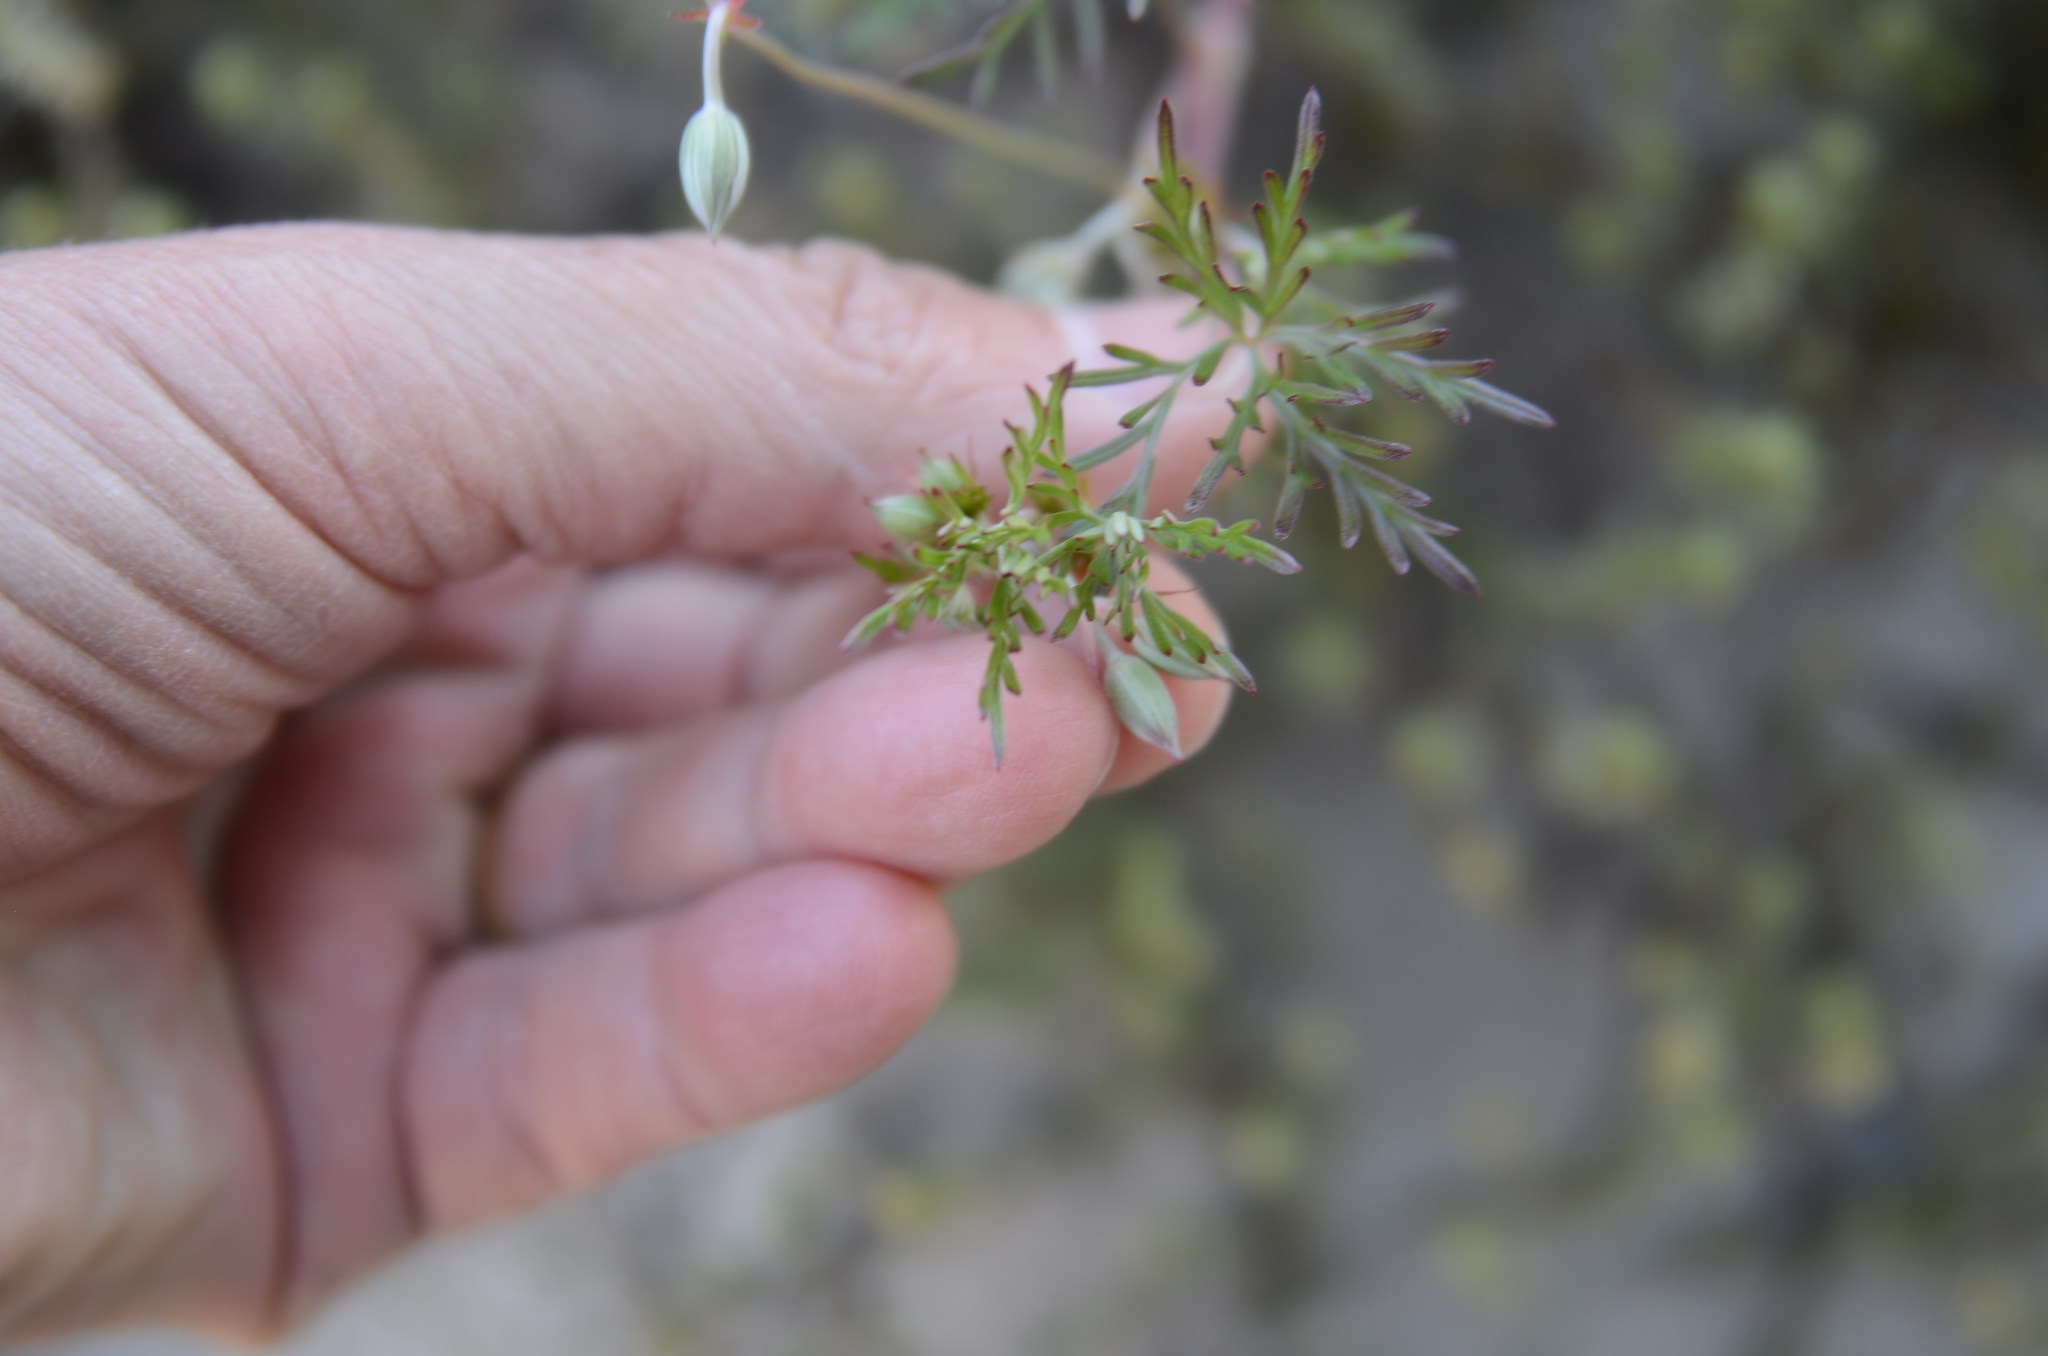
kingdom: Plantae
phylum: Tracheophyta
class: Magnoliopsida
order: Geraniales
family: Geraniaceae
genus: Geranium
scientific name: Geranium incanum
